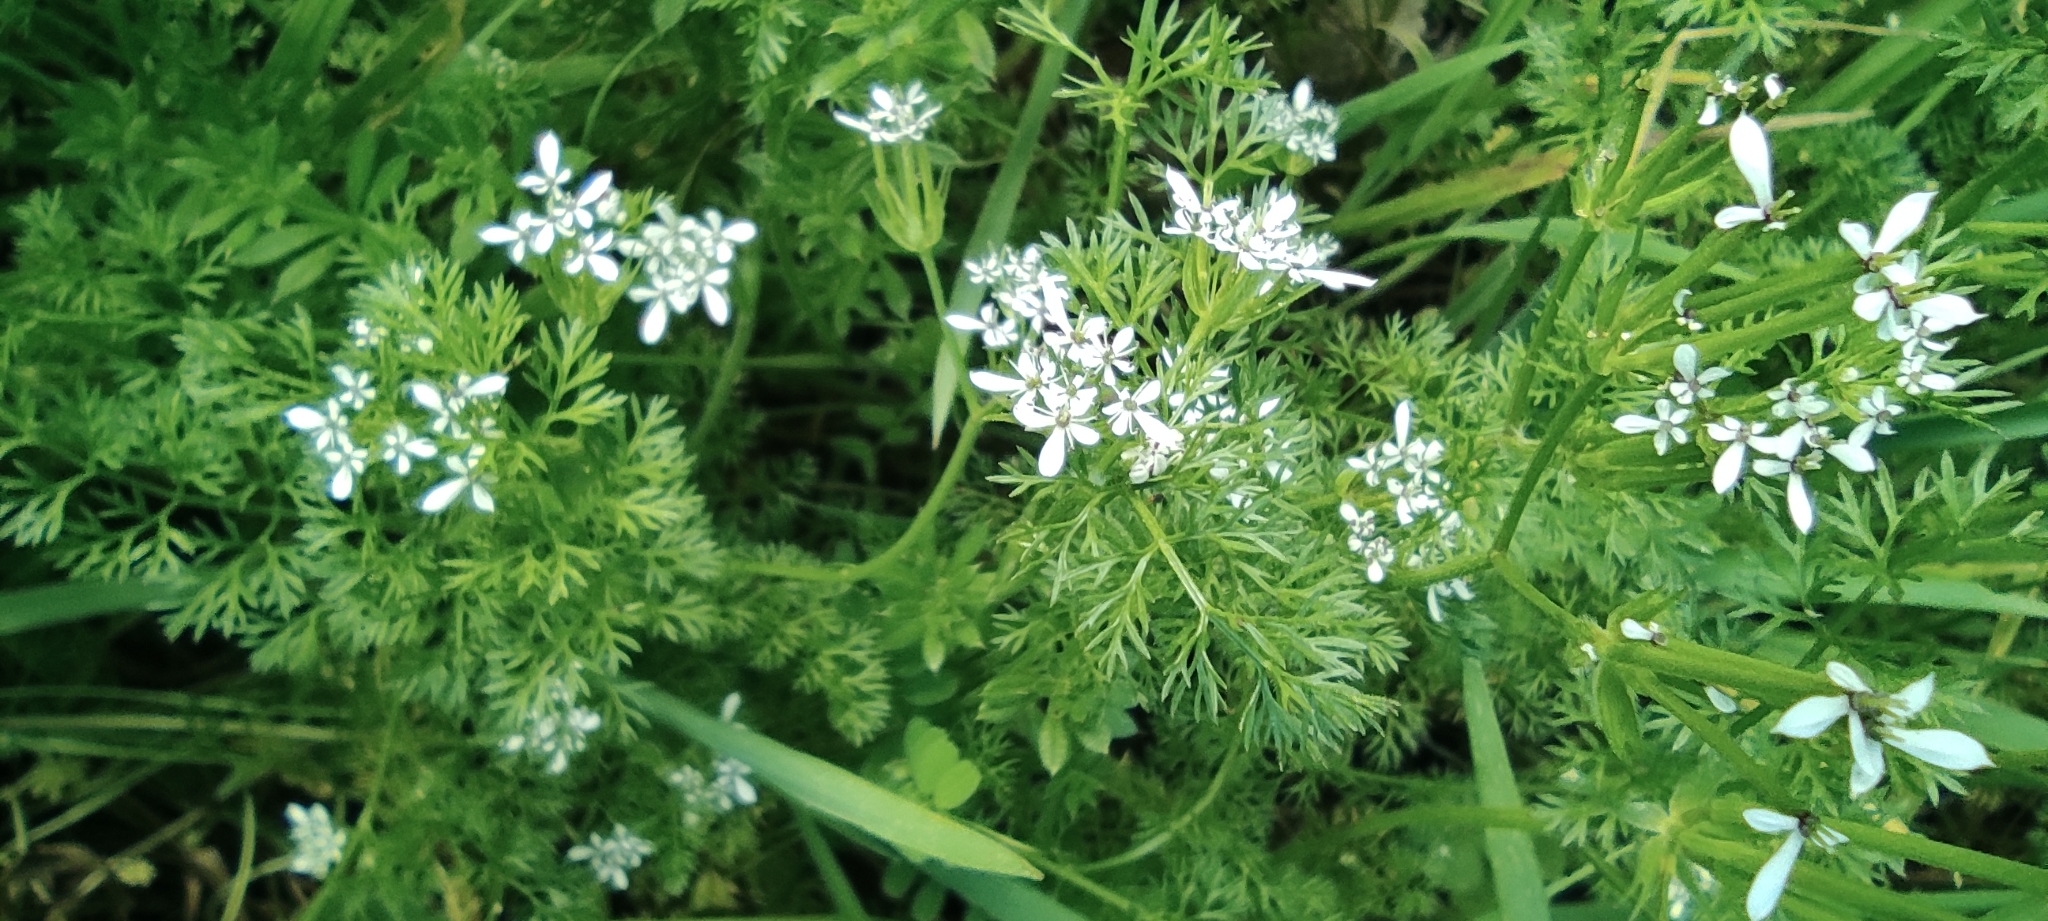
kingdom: Plantae
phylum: Tracheophyta
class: Magnoliopsida
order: Apiales
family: Apiaceae
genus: Scandix
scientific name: Scandix pecten-veneris
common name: Shepherd's-needle
